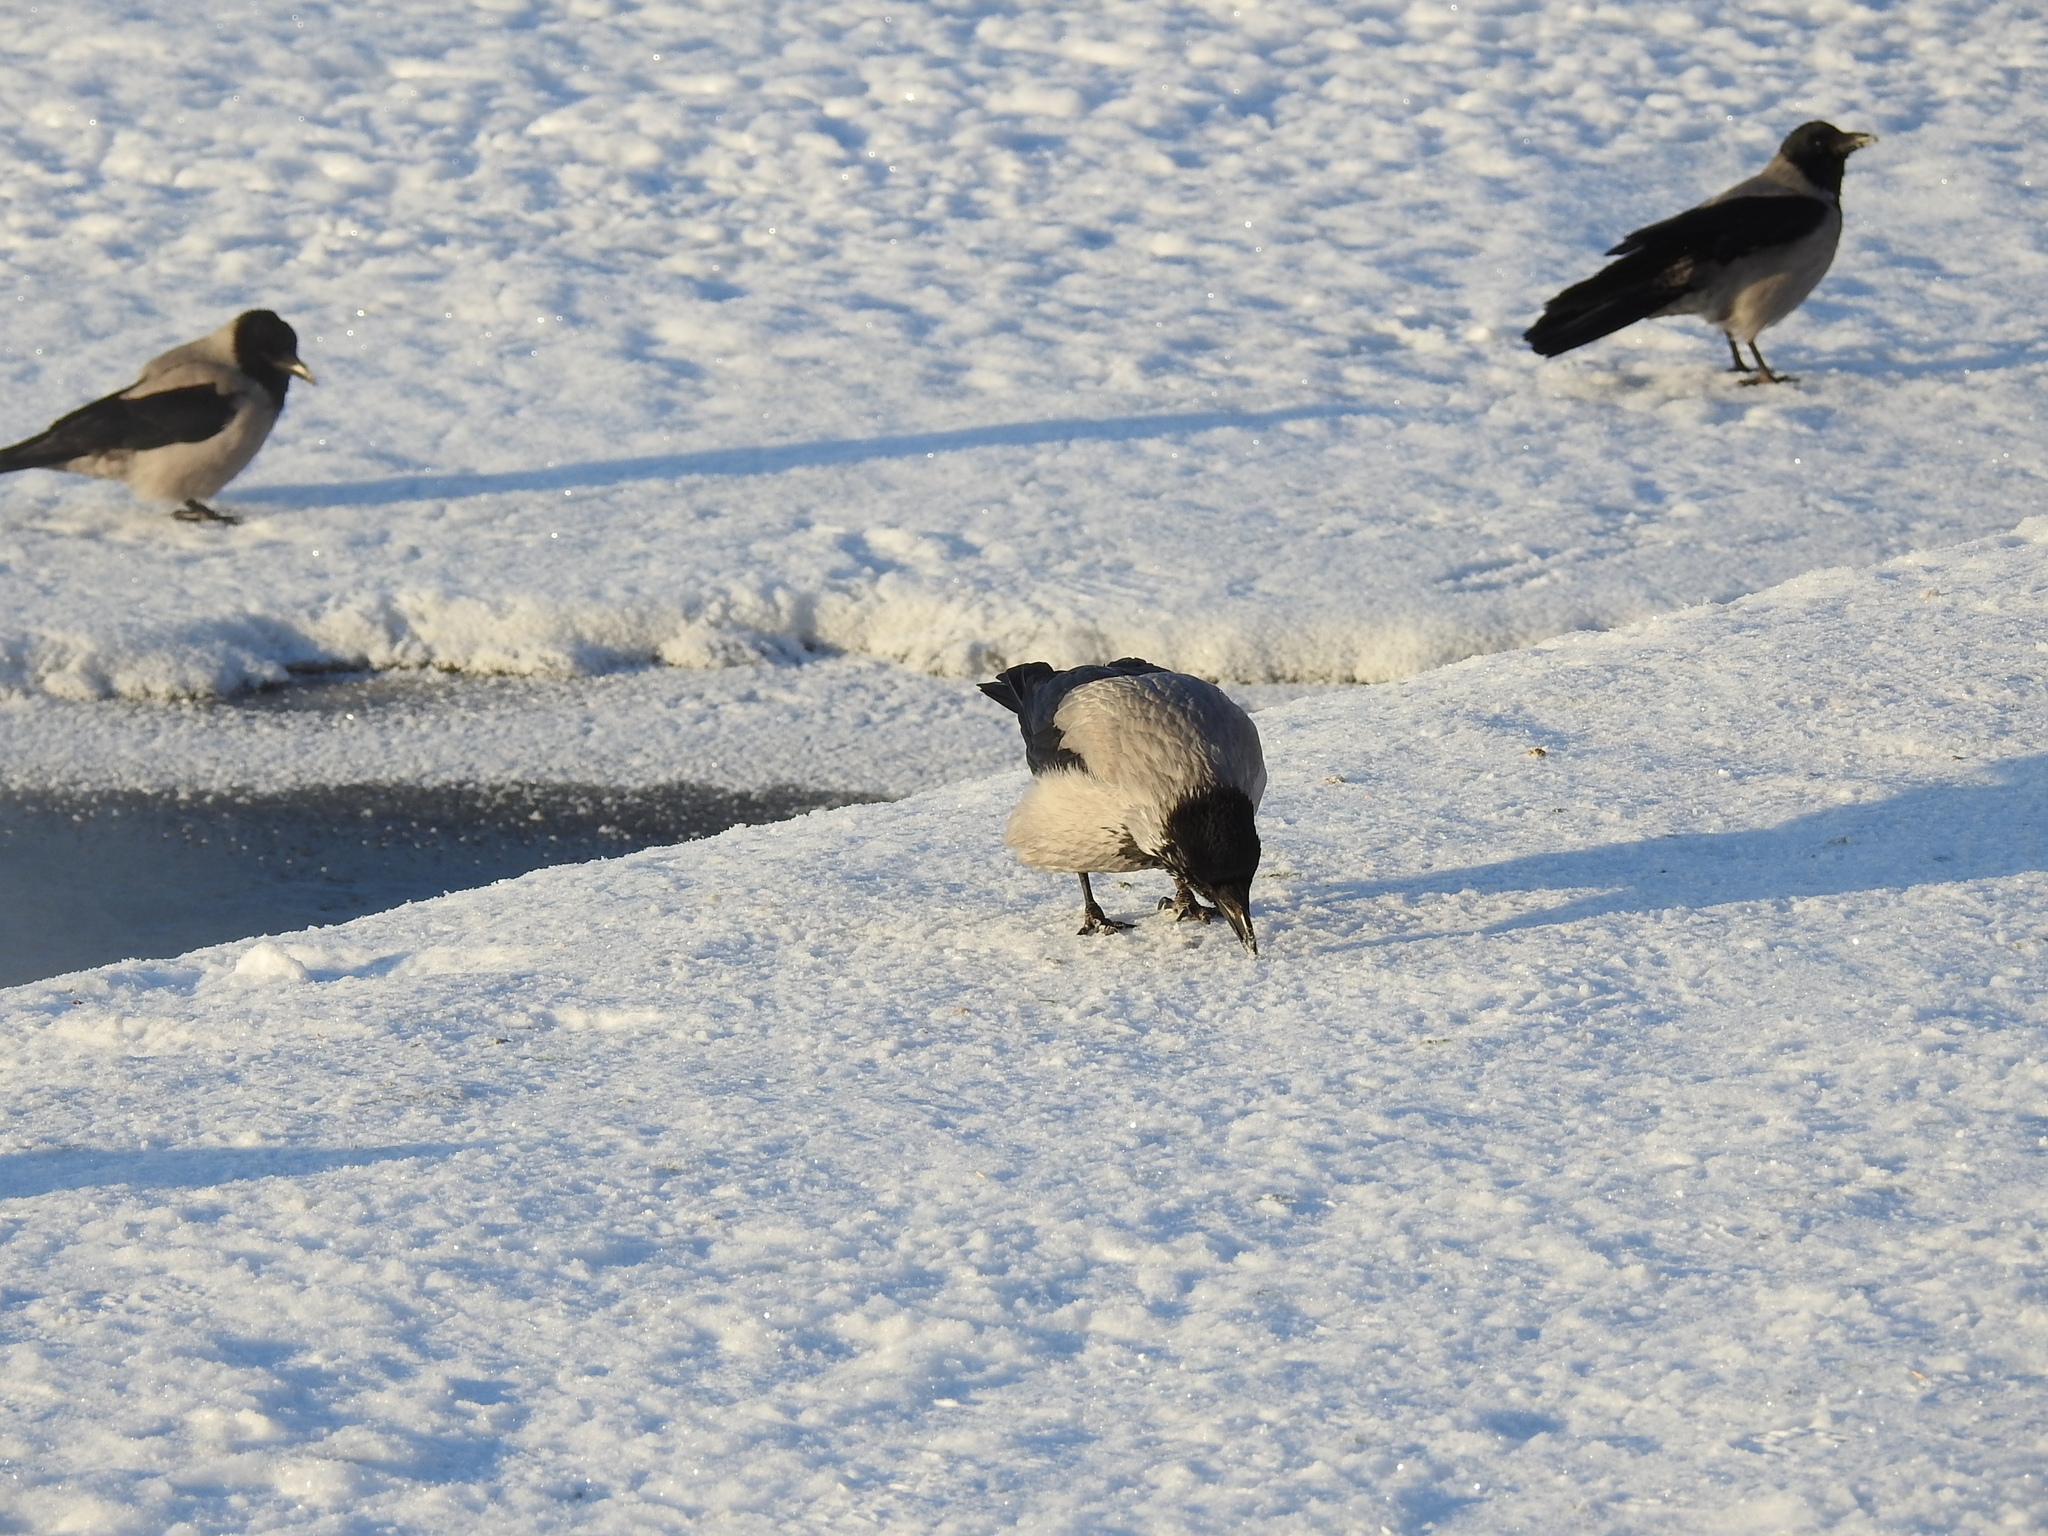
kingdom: Animalia
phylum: Chordata
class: Aves
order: Passeriformes
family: Corvidae
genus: Corvus
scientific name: Corvus cornix
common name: Hooded crow
